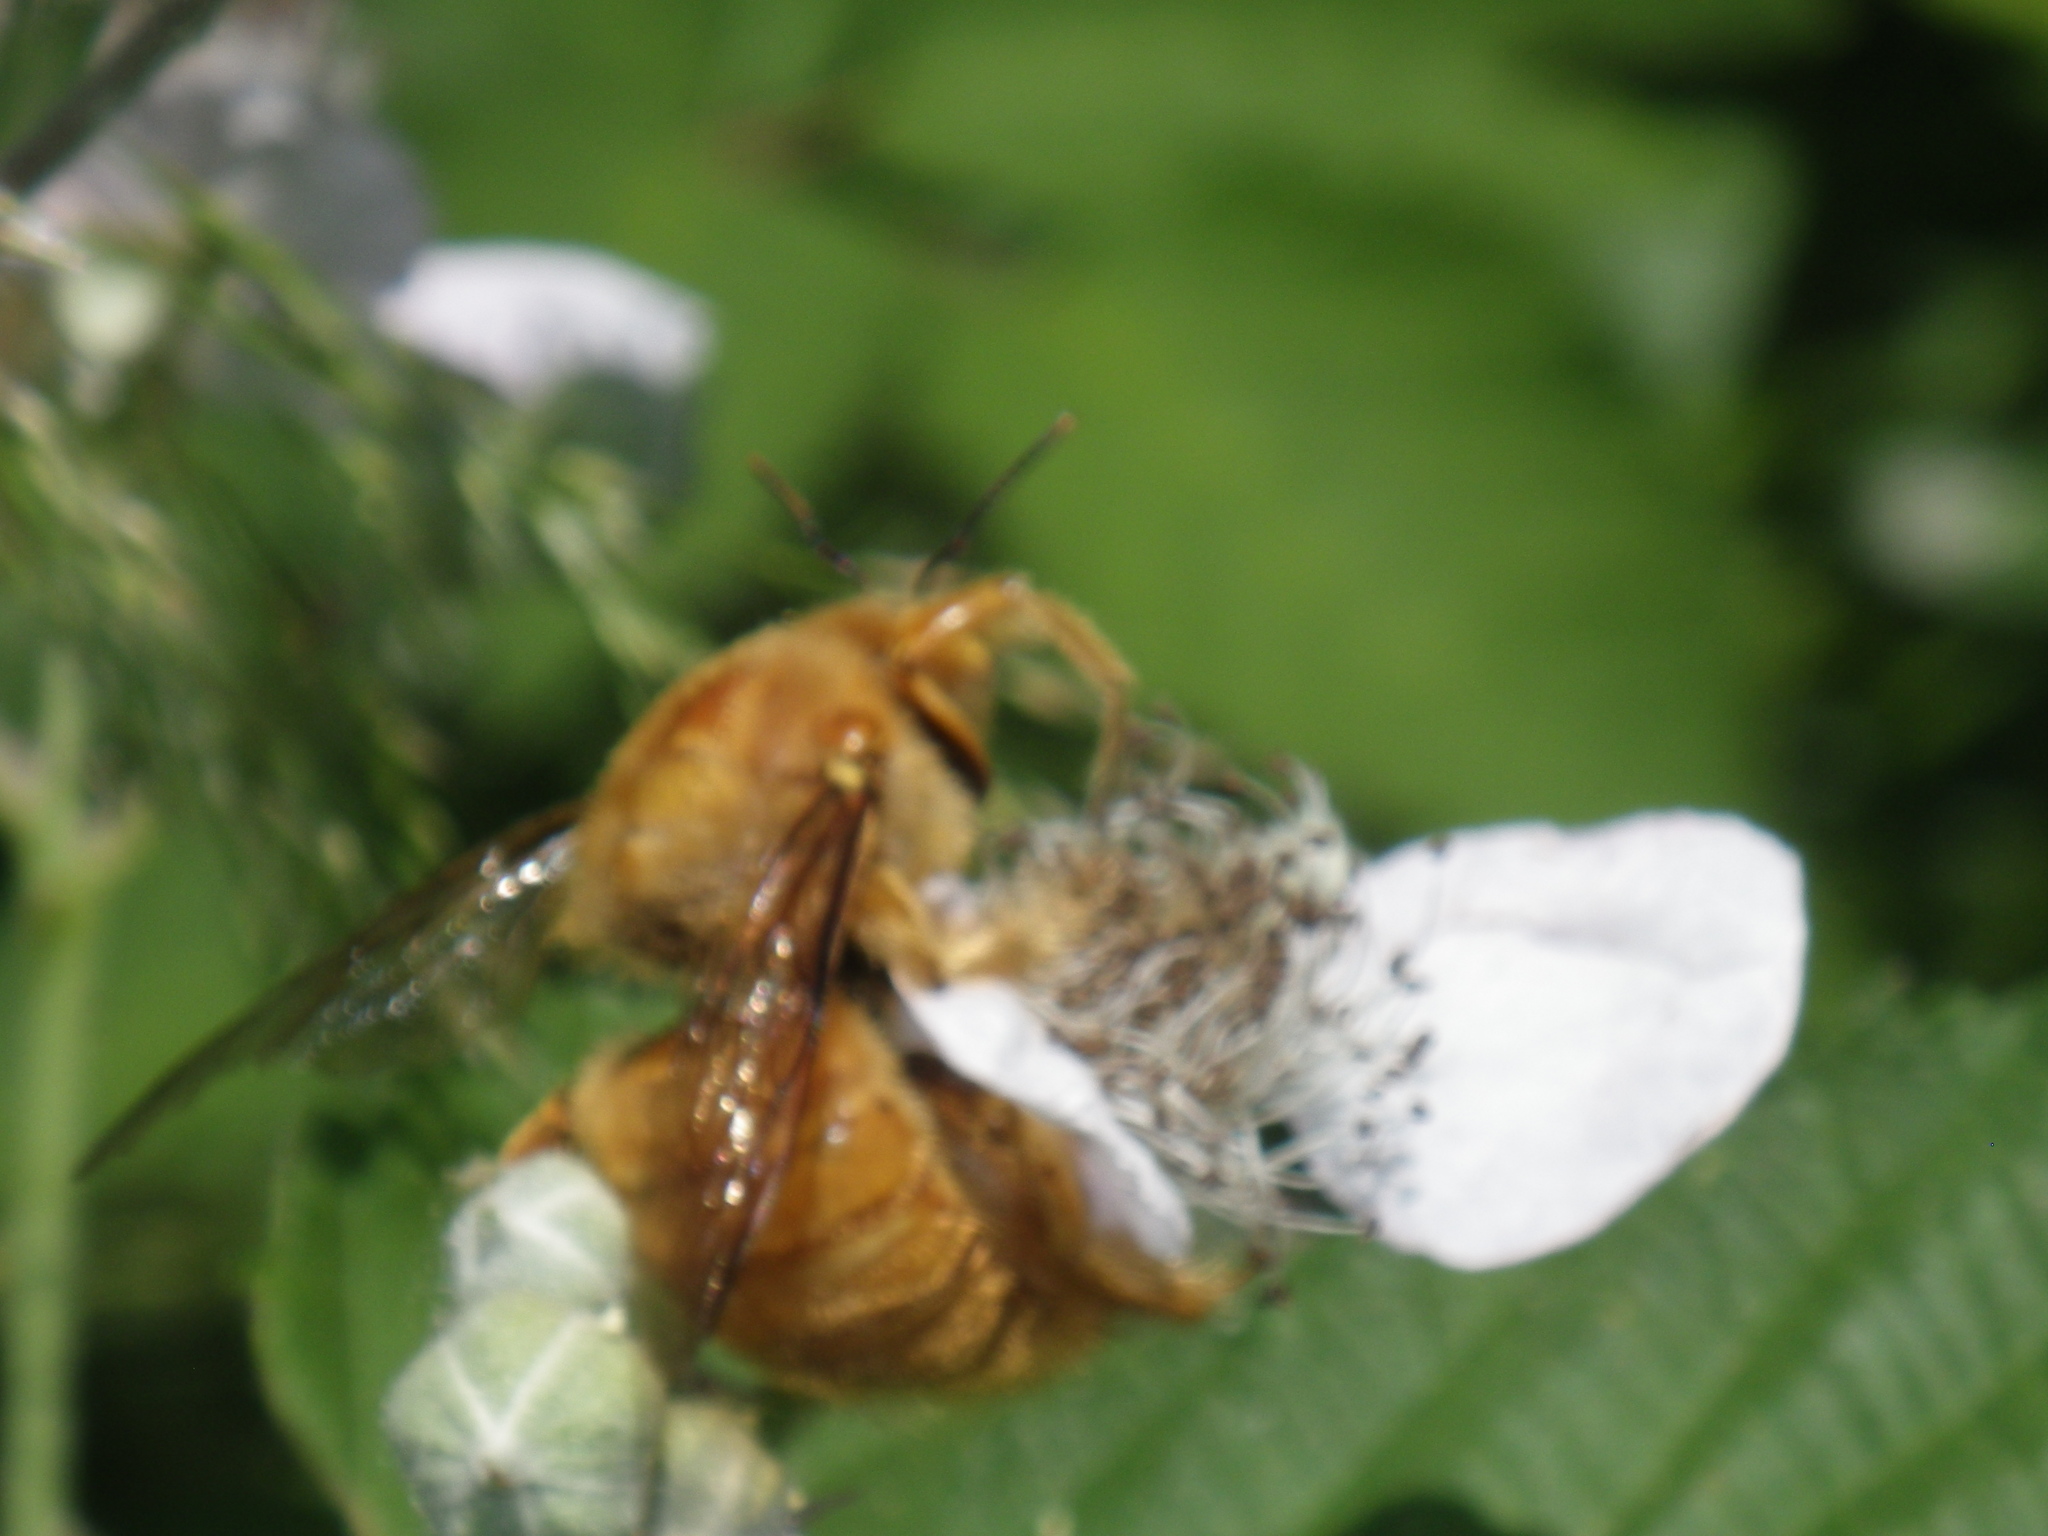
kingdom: Animalia
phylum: Arthropoda
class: Insecta
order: Hymenoptera
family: Apidae
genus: Xylocopa
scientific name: Xylocopa sonorina
